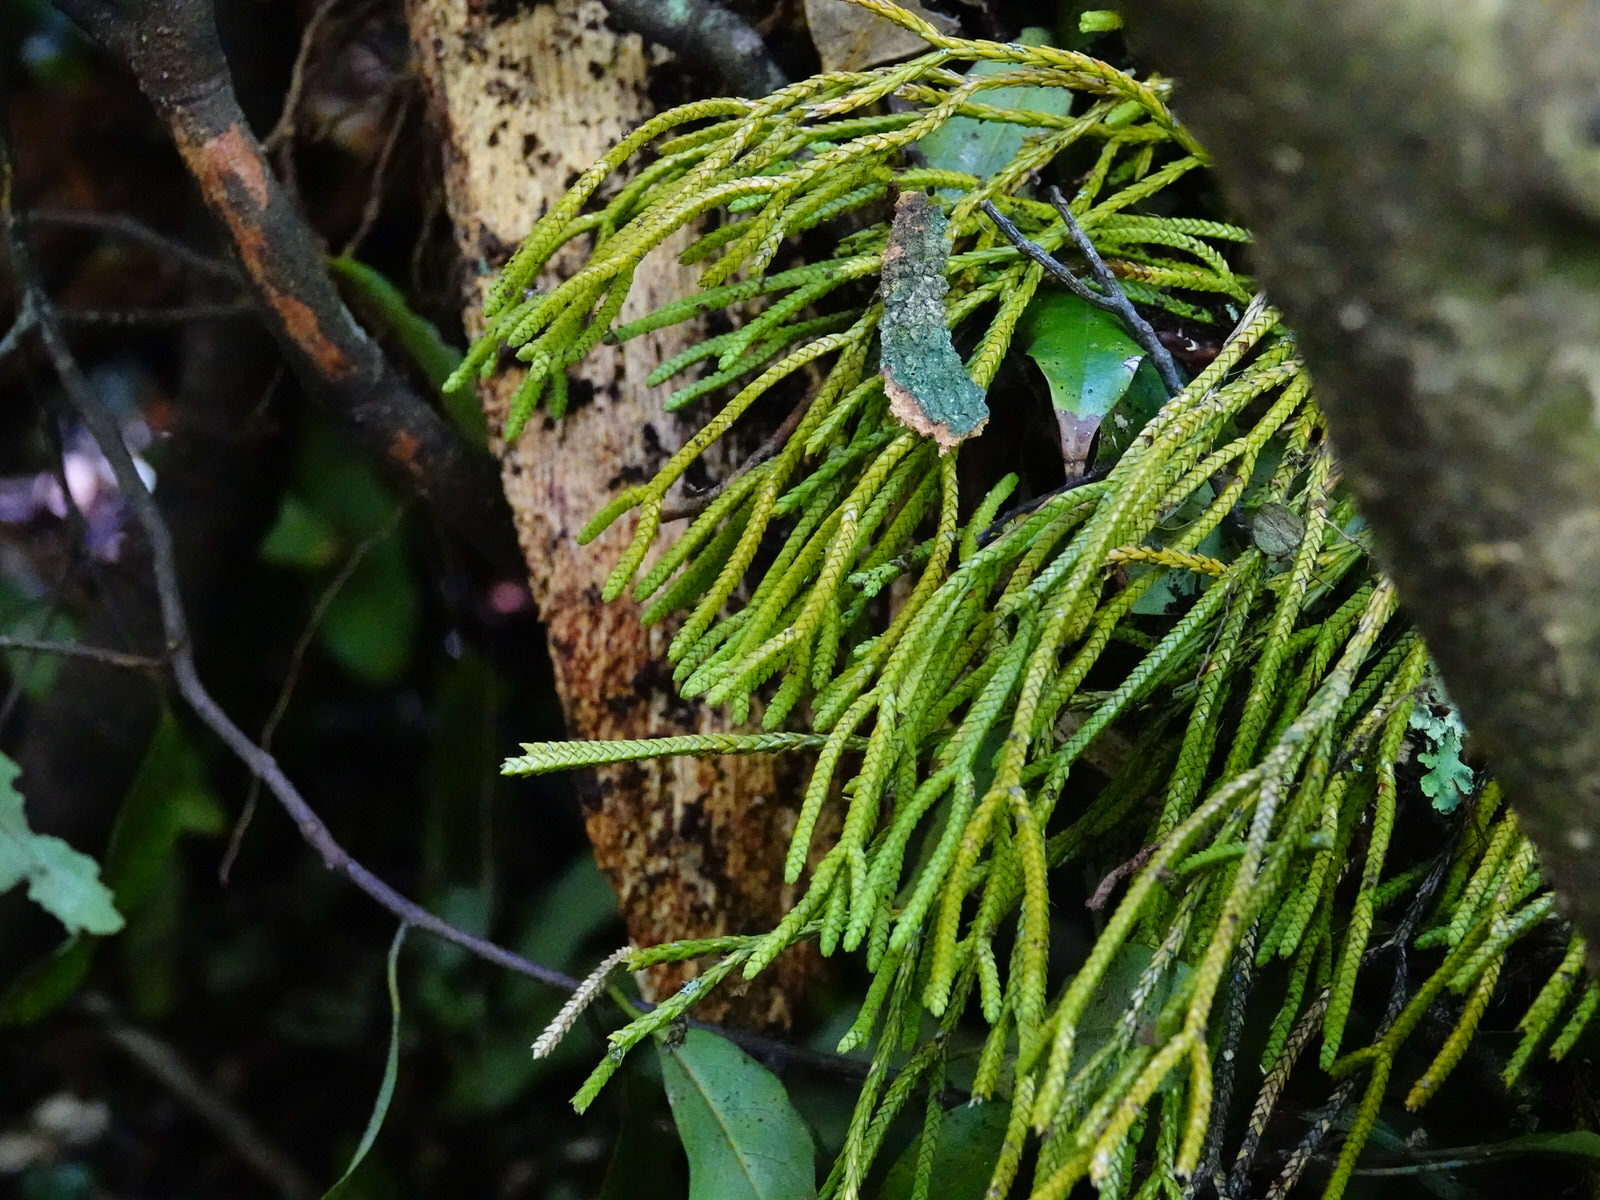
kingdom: Plantae
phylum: Tracheophyta
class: Lycopodiopsida
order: Lycopodiales
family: Lycopodiaceae
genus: Phlegmariurus
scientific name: Phlegmariurus billardierei
